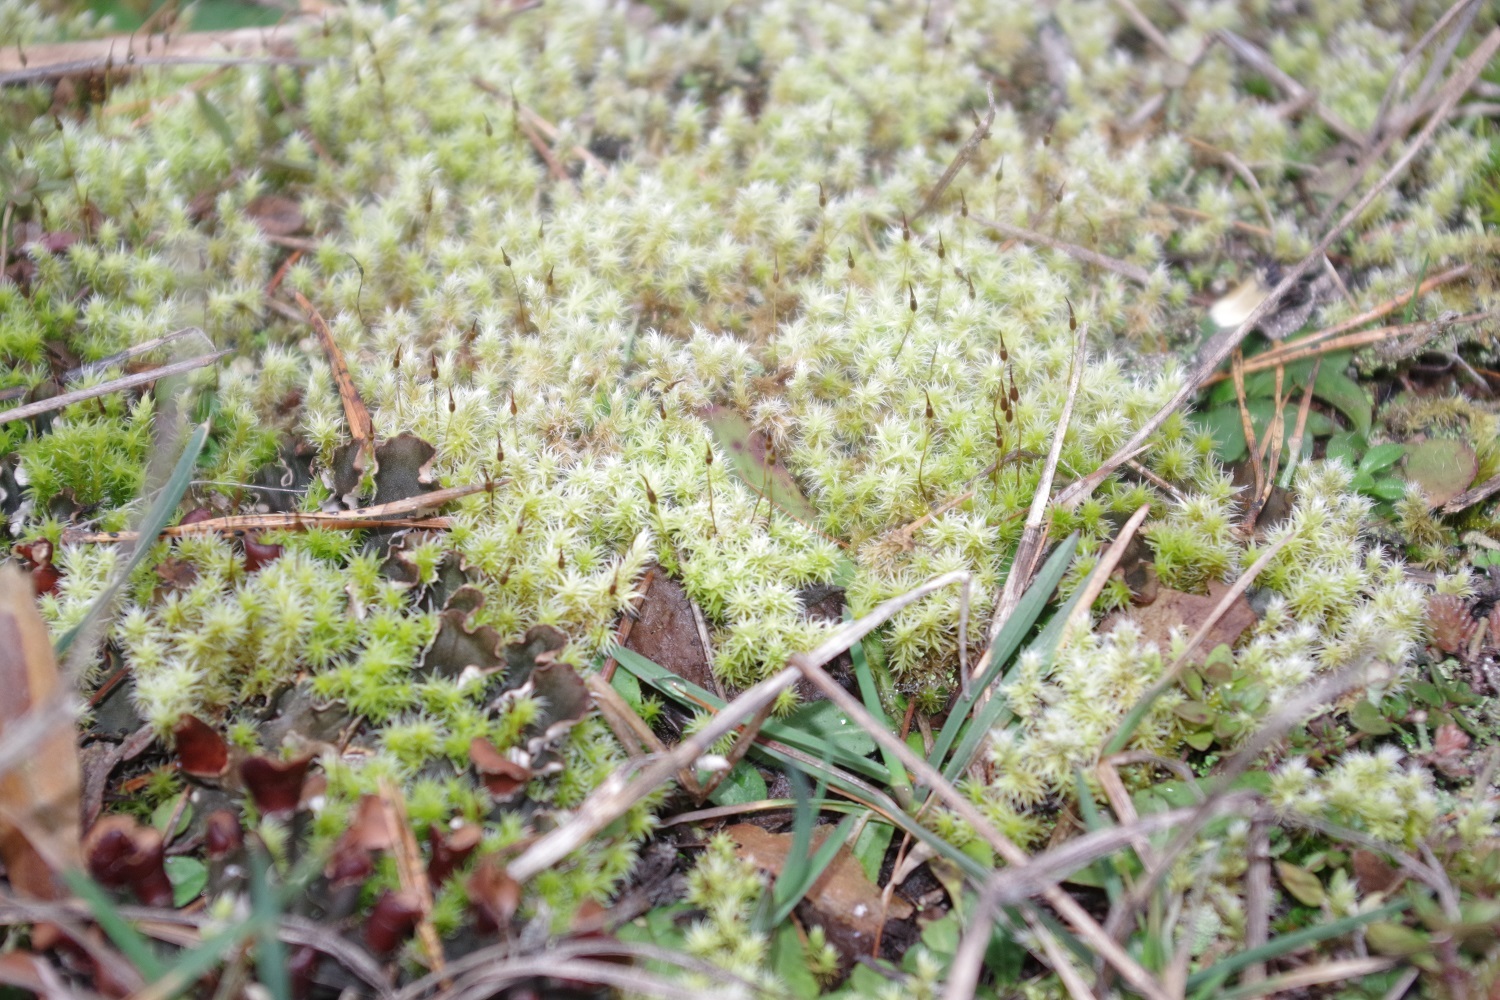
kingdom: Plantae
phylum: Bryophyta
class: Bryopsida
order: Grimmiales
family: Grimmiaceae
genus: Niphotrichum
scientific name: Niphotrichum canescens
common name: Hoary fringe-moss
